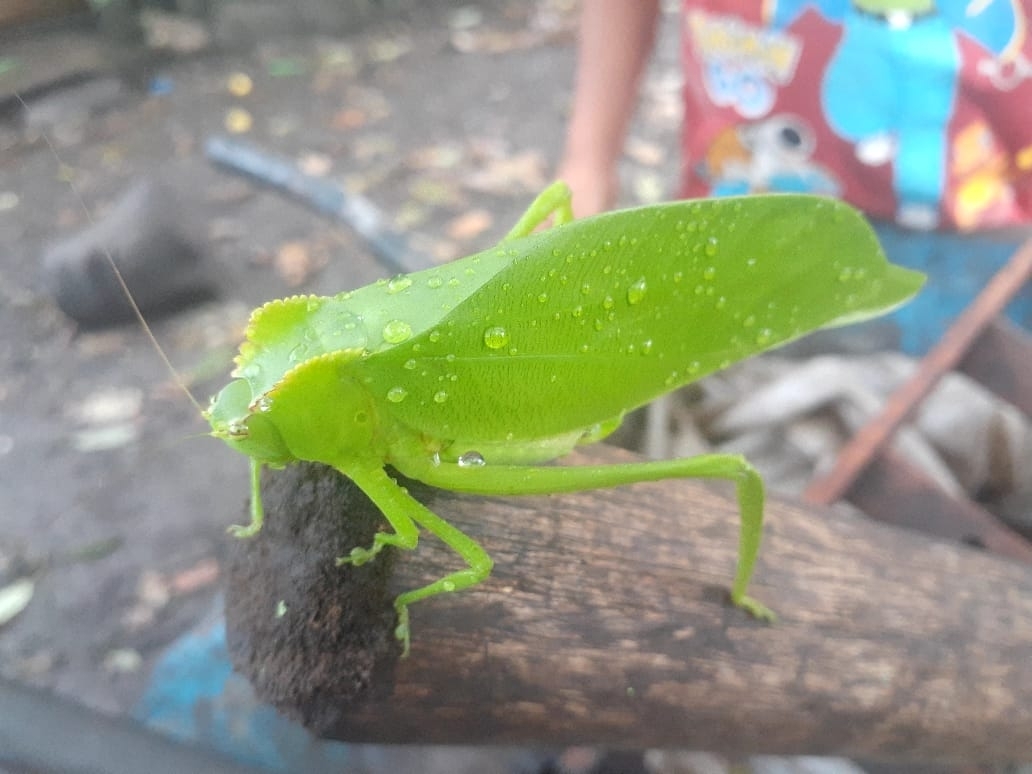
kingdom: Animalia
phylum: Arthropoda
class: Insecta
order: Orthoptera
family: Tettigoniidae
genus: Cnemidophyllum
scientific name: Cnemidophyllum citrifolium
